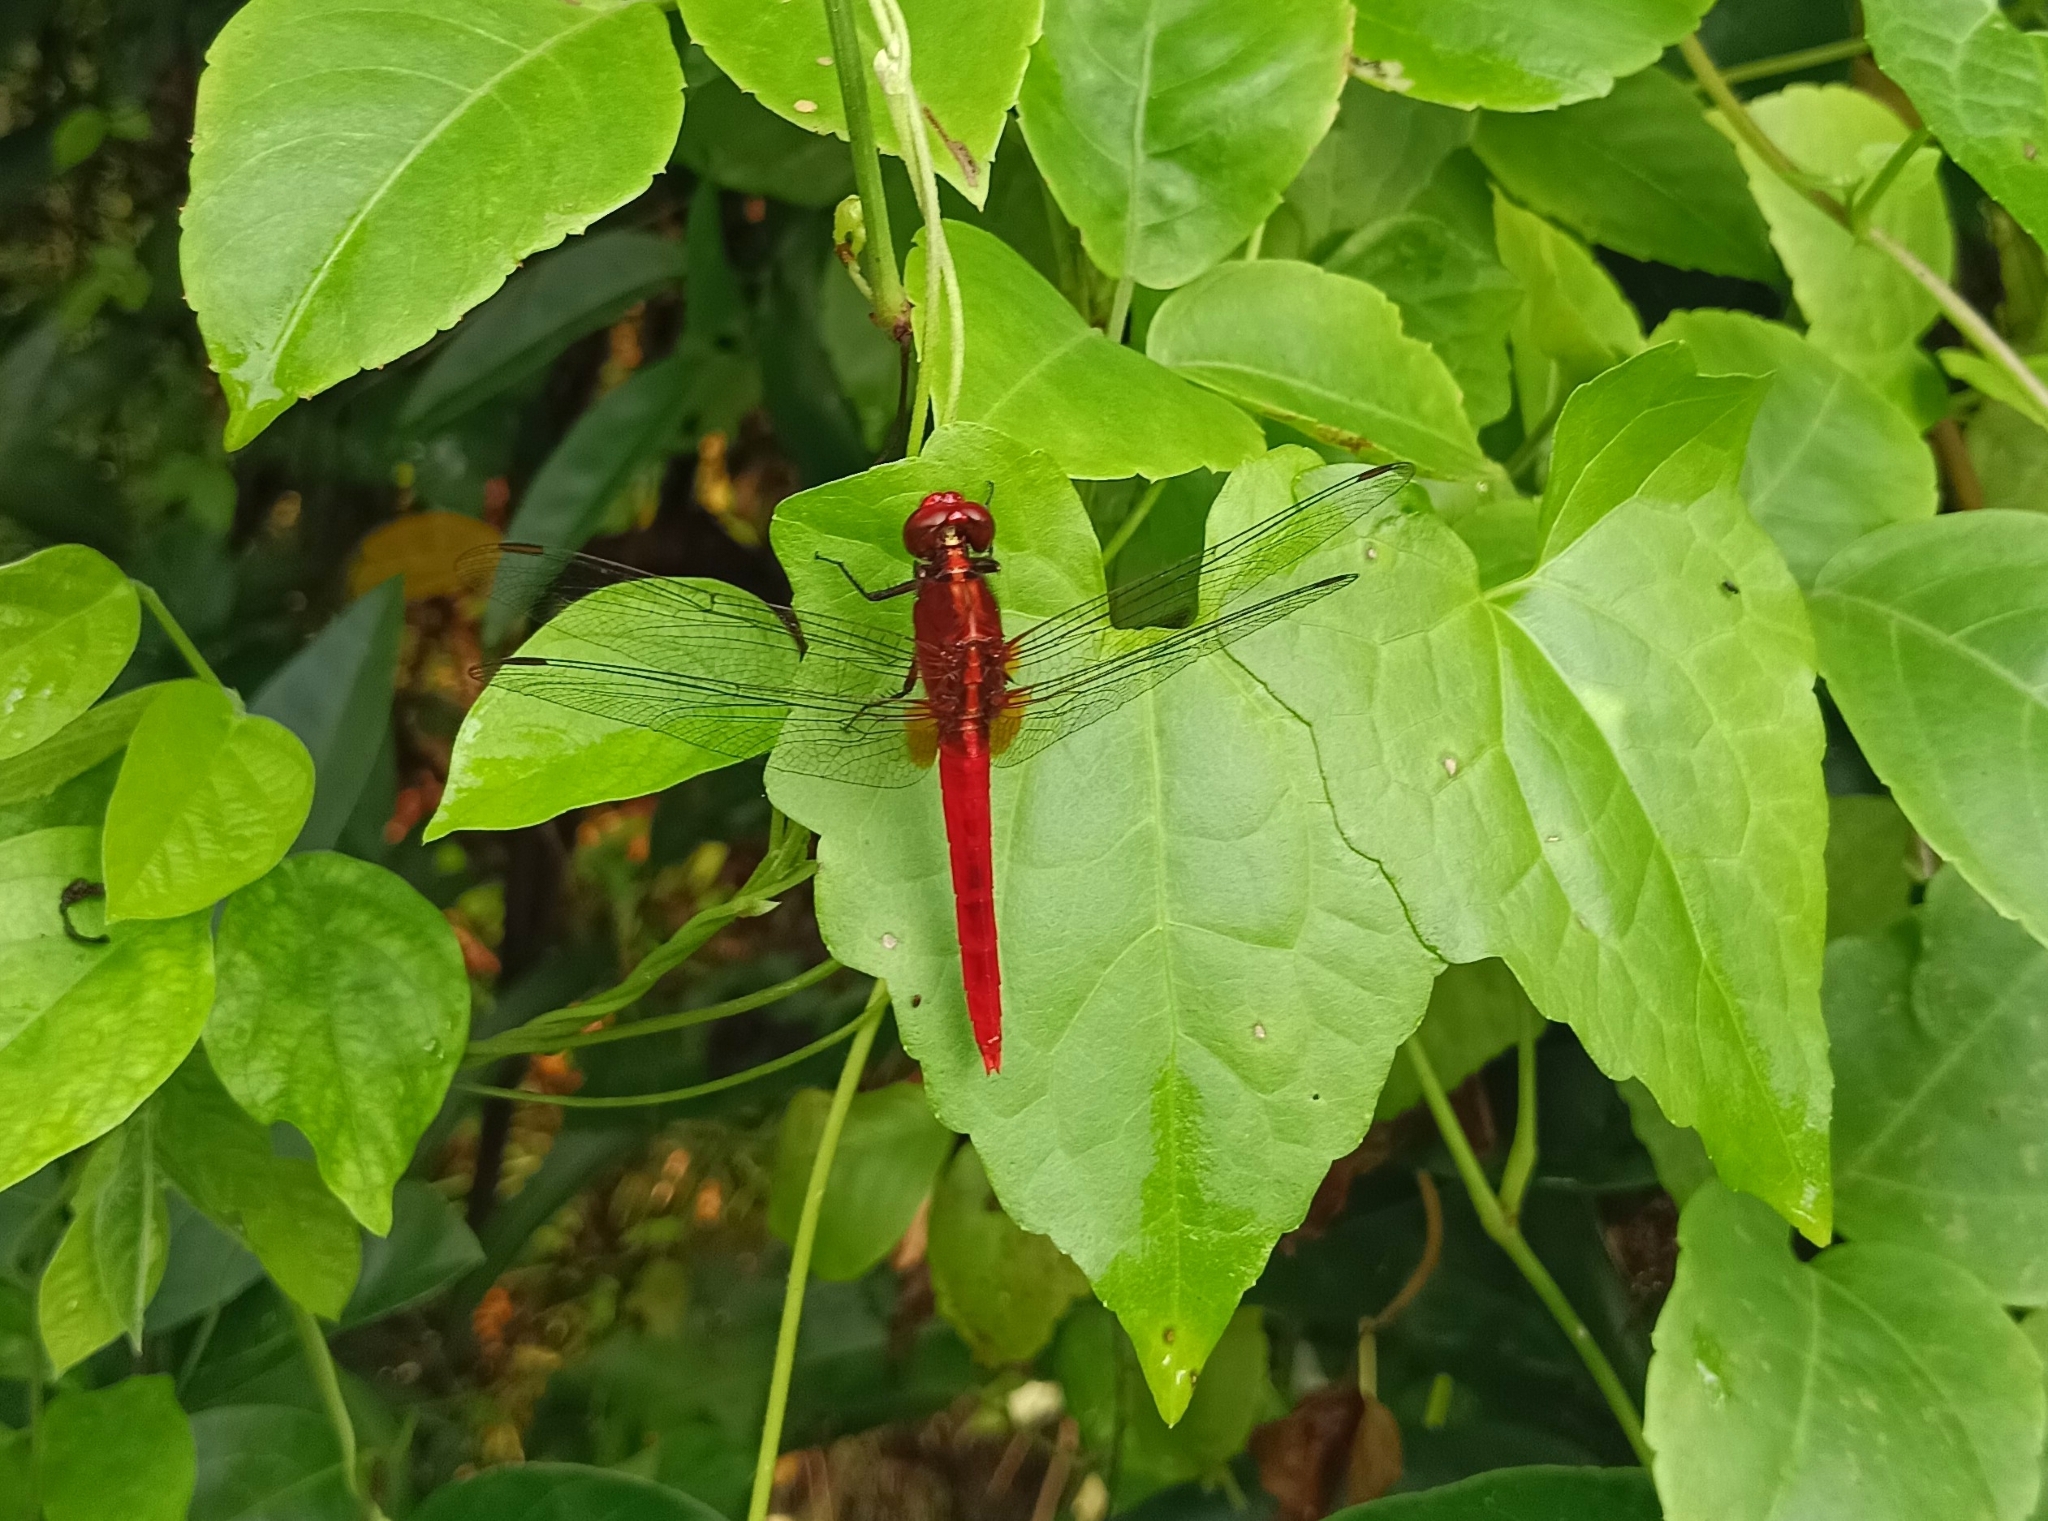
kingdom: Animalia
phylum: Arthropoda
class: Insecta
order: Odonata
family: Libellulidae
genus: Rhodothemis
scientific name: Rhodothemis rufa
